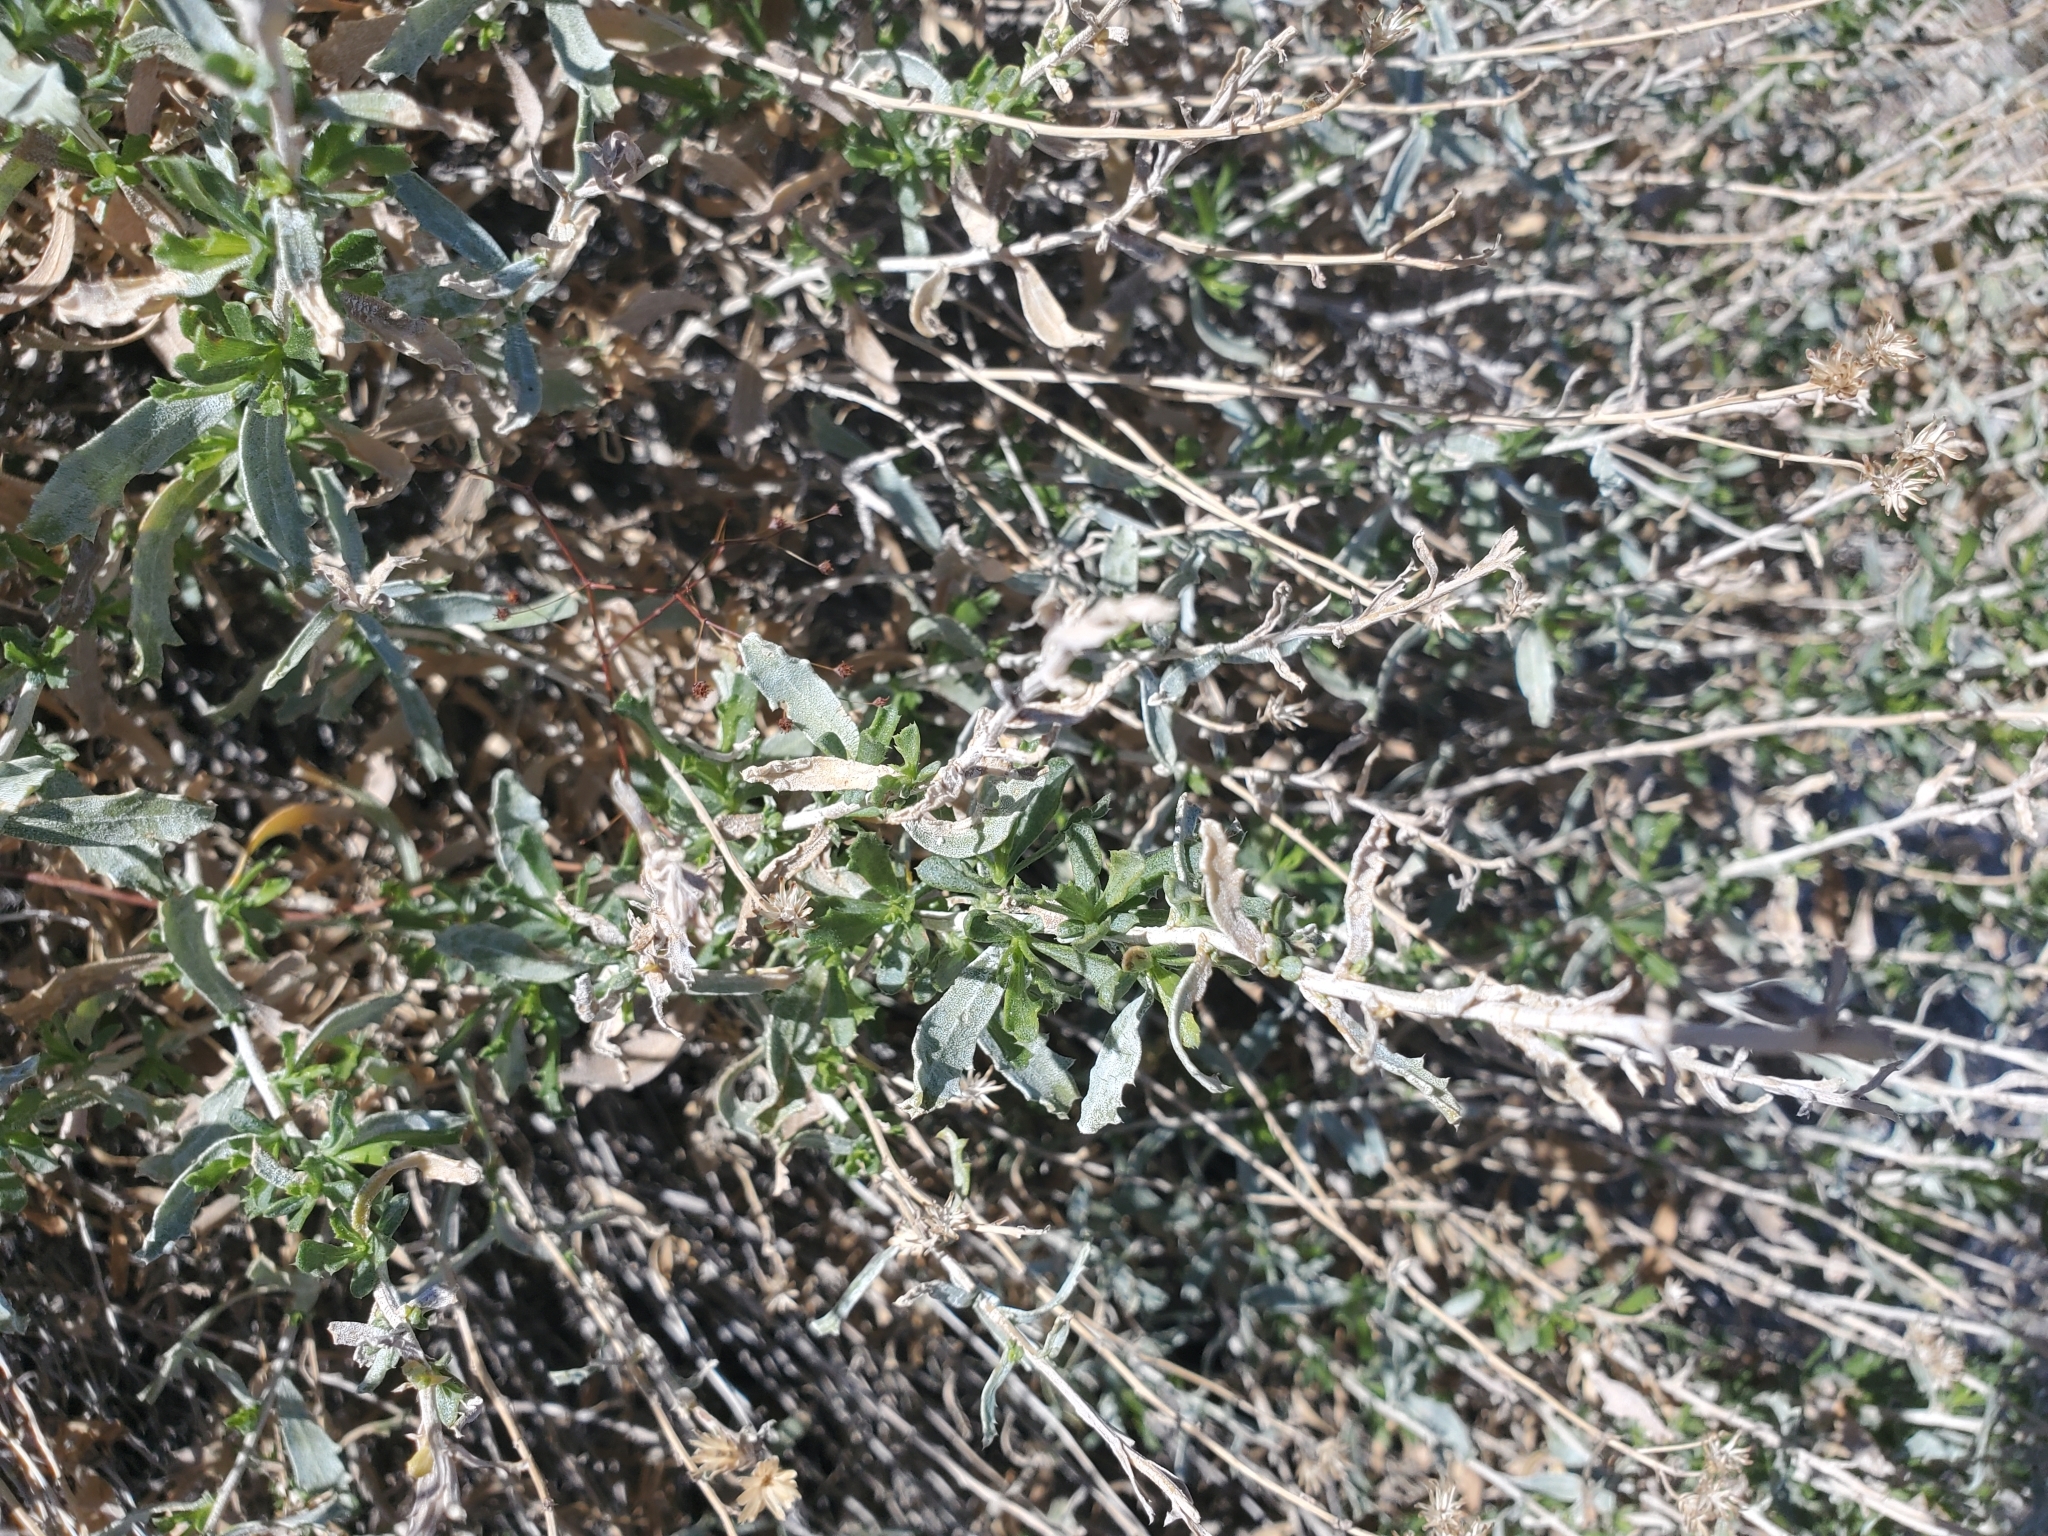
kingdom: Plantae
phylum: Tracheophyta
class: Magnoliopsida
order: Asterales
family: Asteraceae
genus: Isocoma
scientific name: Isocoma acradenia
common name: Alkali jimmyweed
